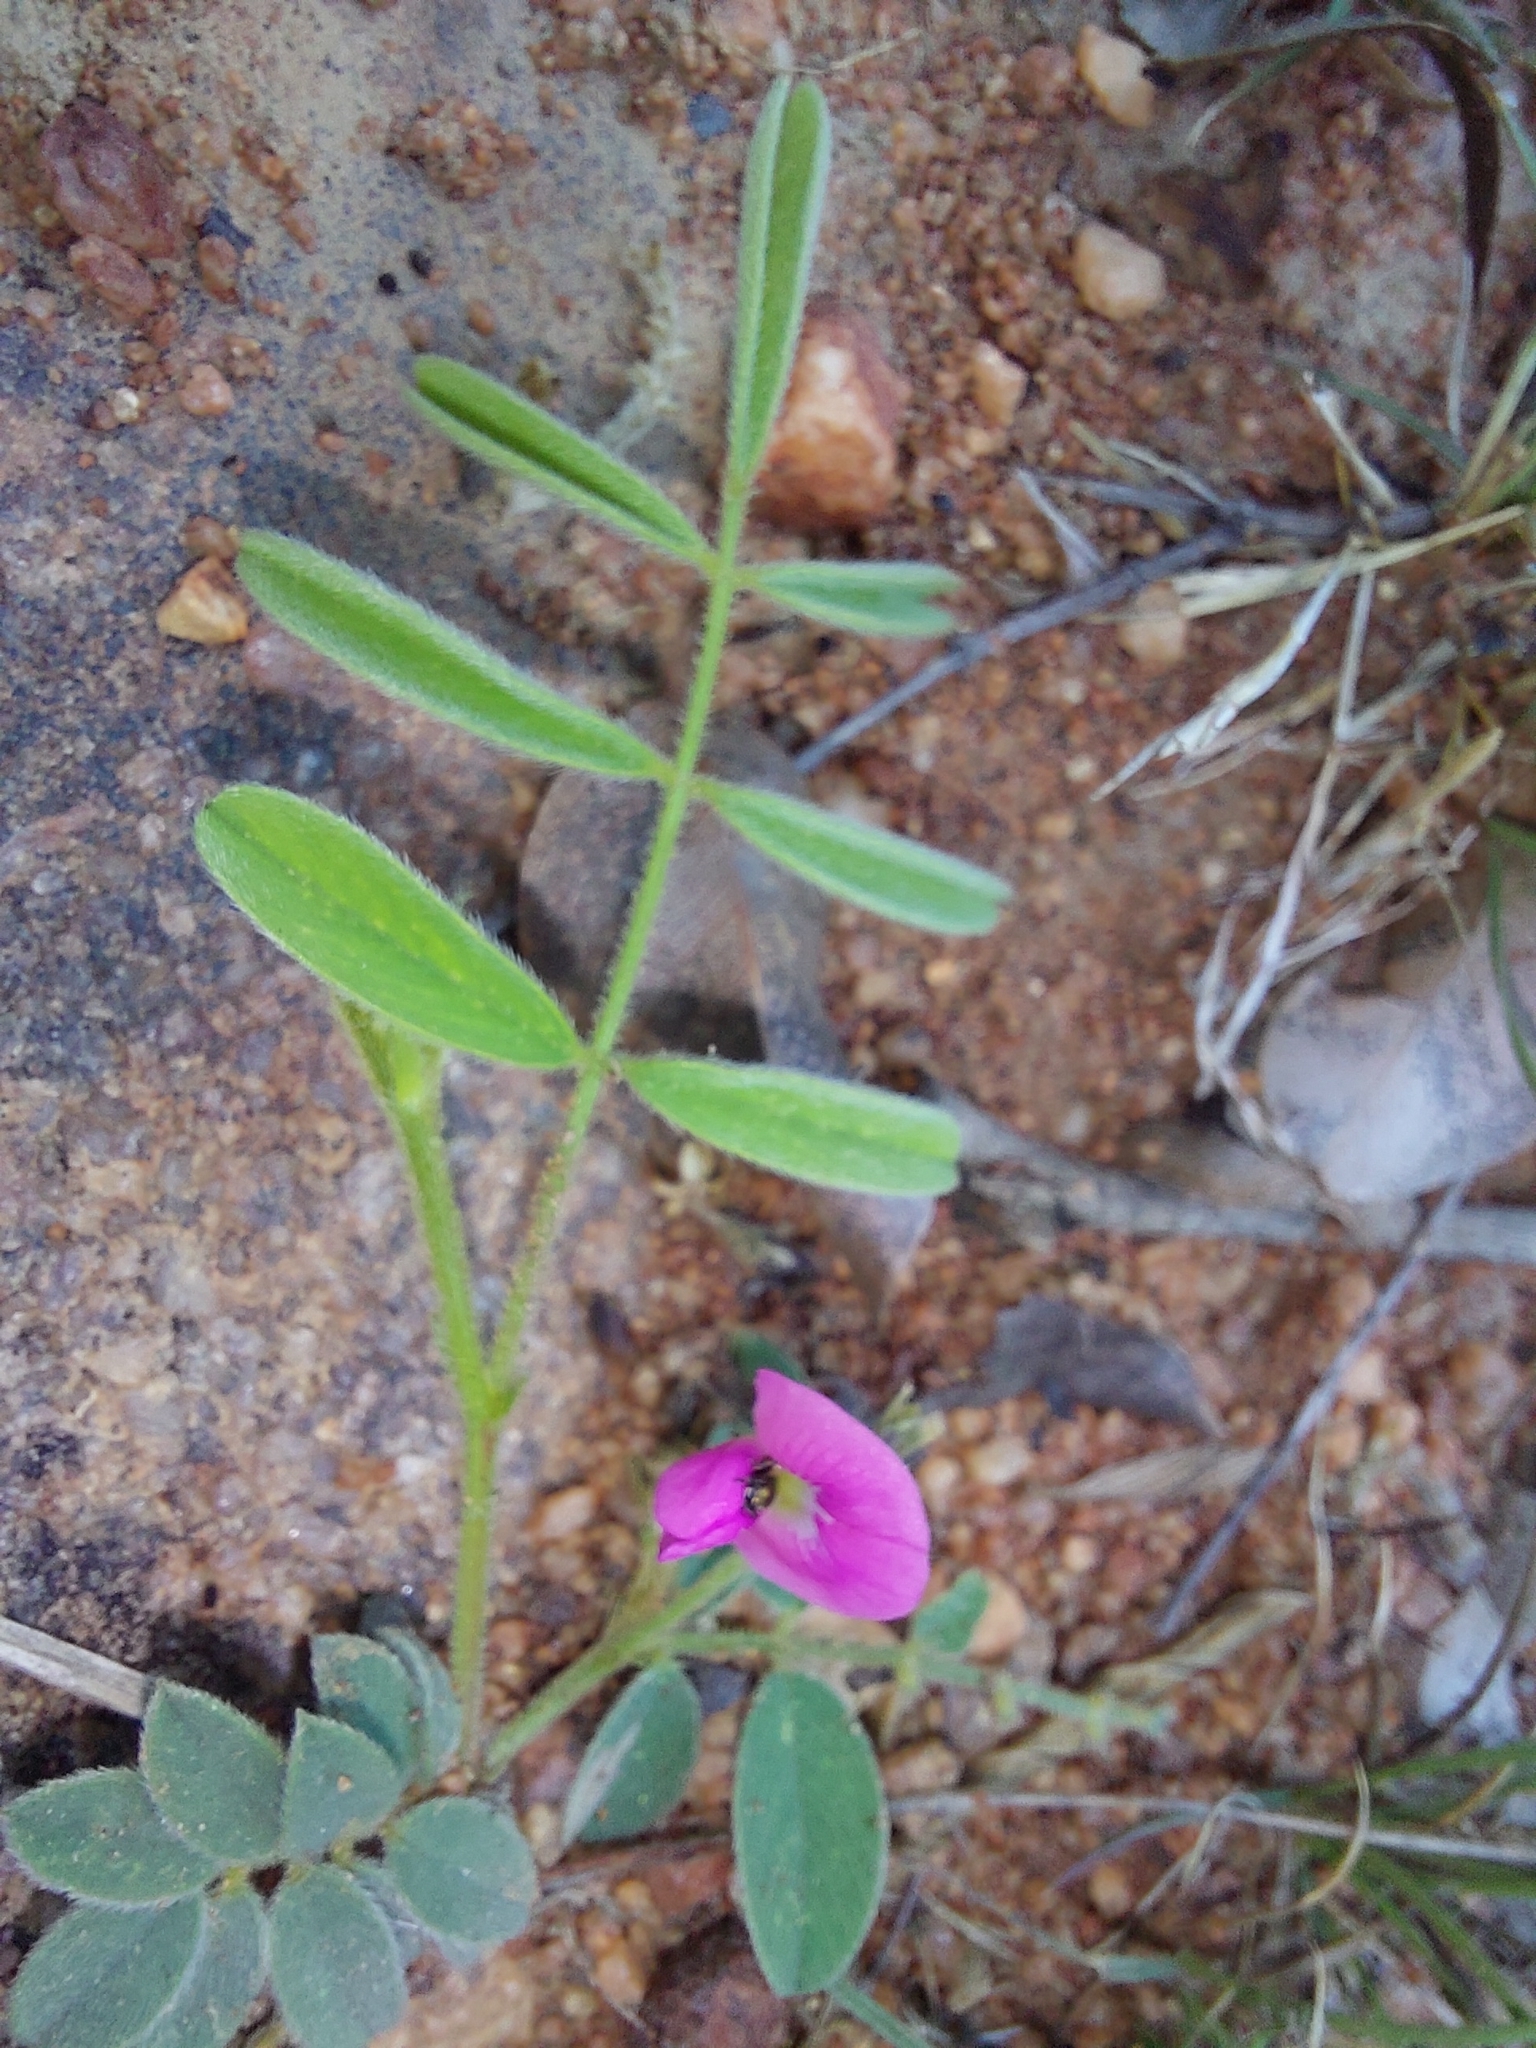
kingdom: Plantae
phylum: Tracheophyta
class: Magnoliopsida
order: Fabales
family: Fabaceae
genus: Tephrosia
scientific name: Tephrosia capensis
